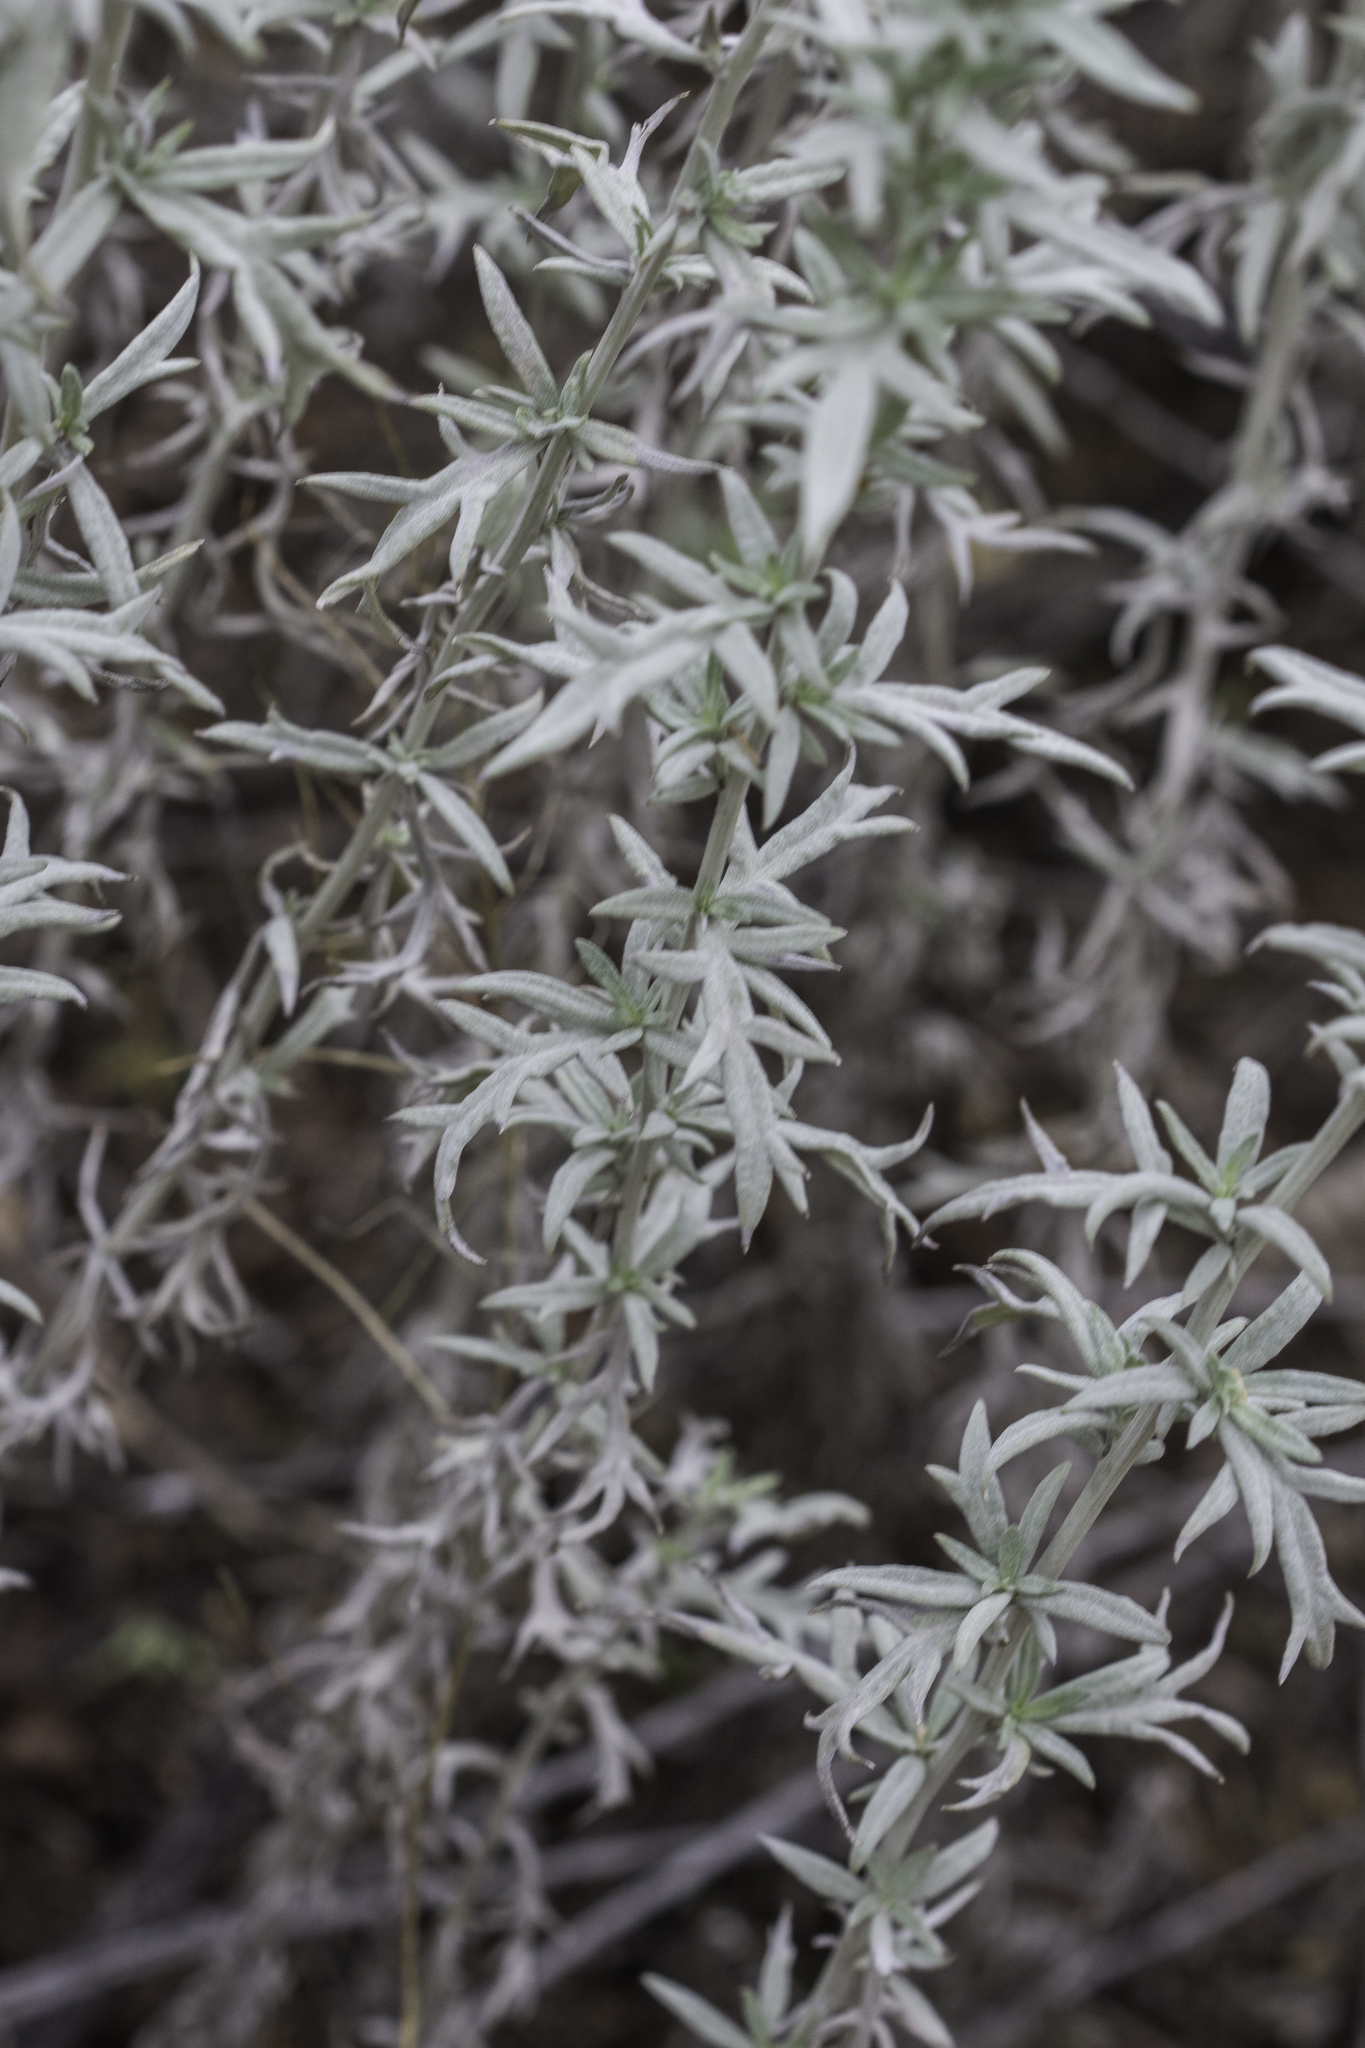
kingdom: Plantae
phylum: Tracheophyta
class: Magnoliopsida
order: Asterales
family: Asteraceae
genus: Artemisia
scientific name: Artemisia ludoviciana
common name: Western mugwort
